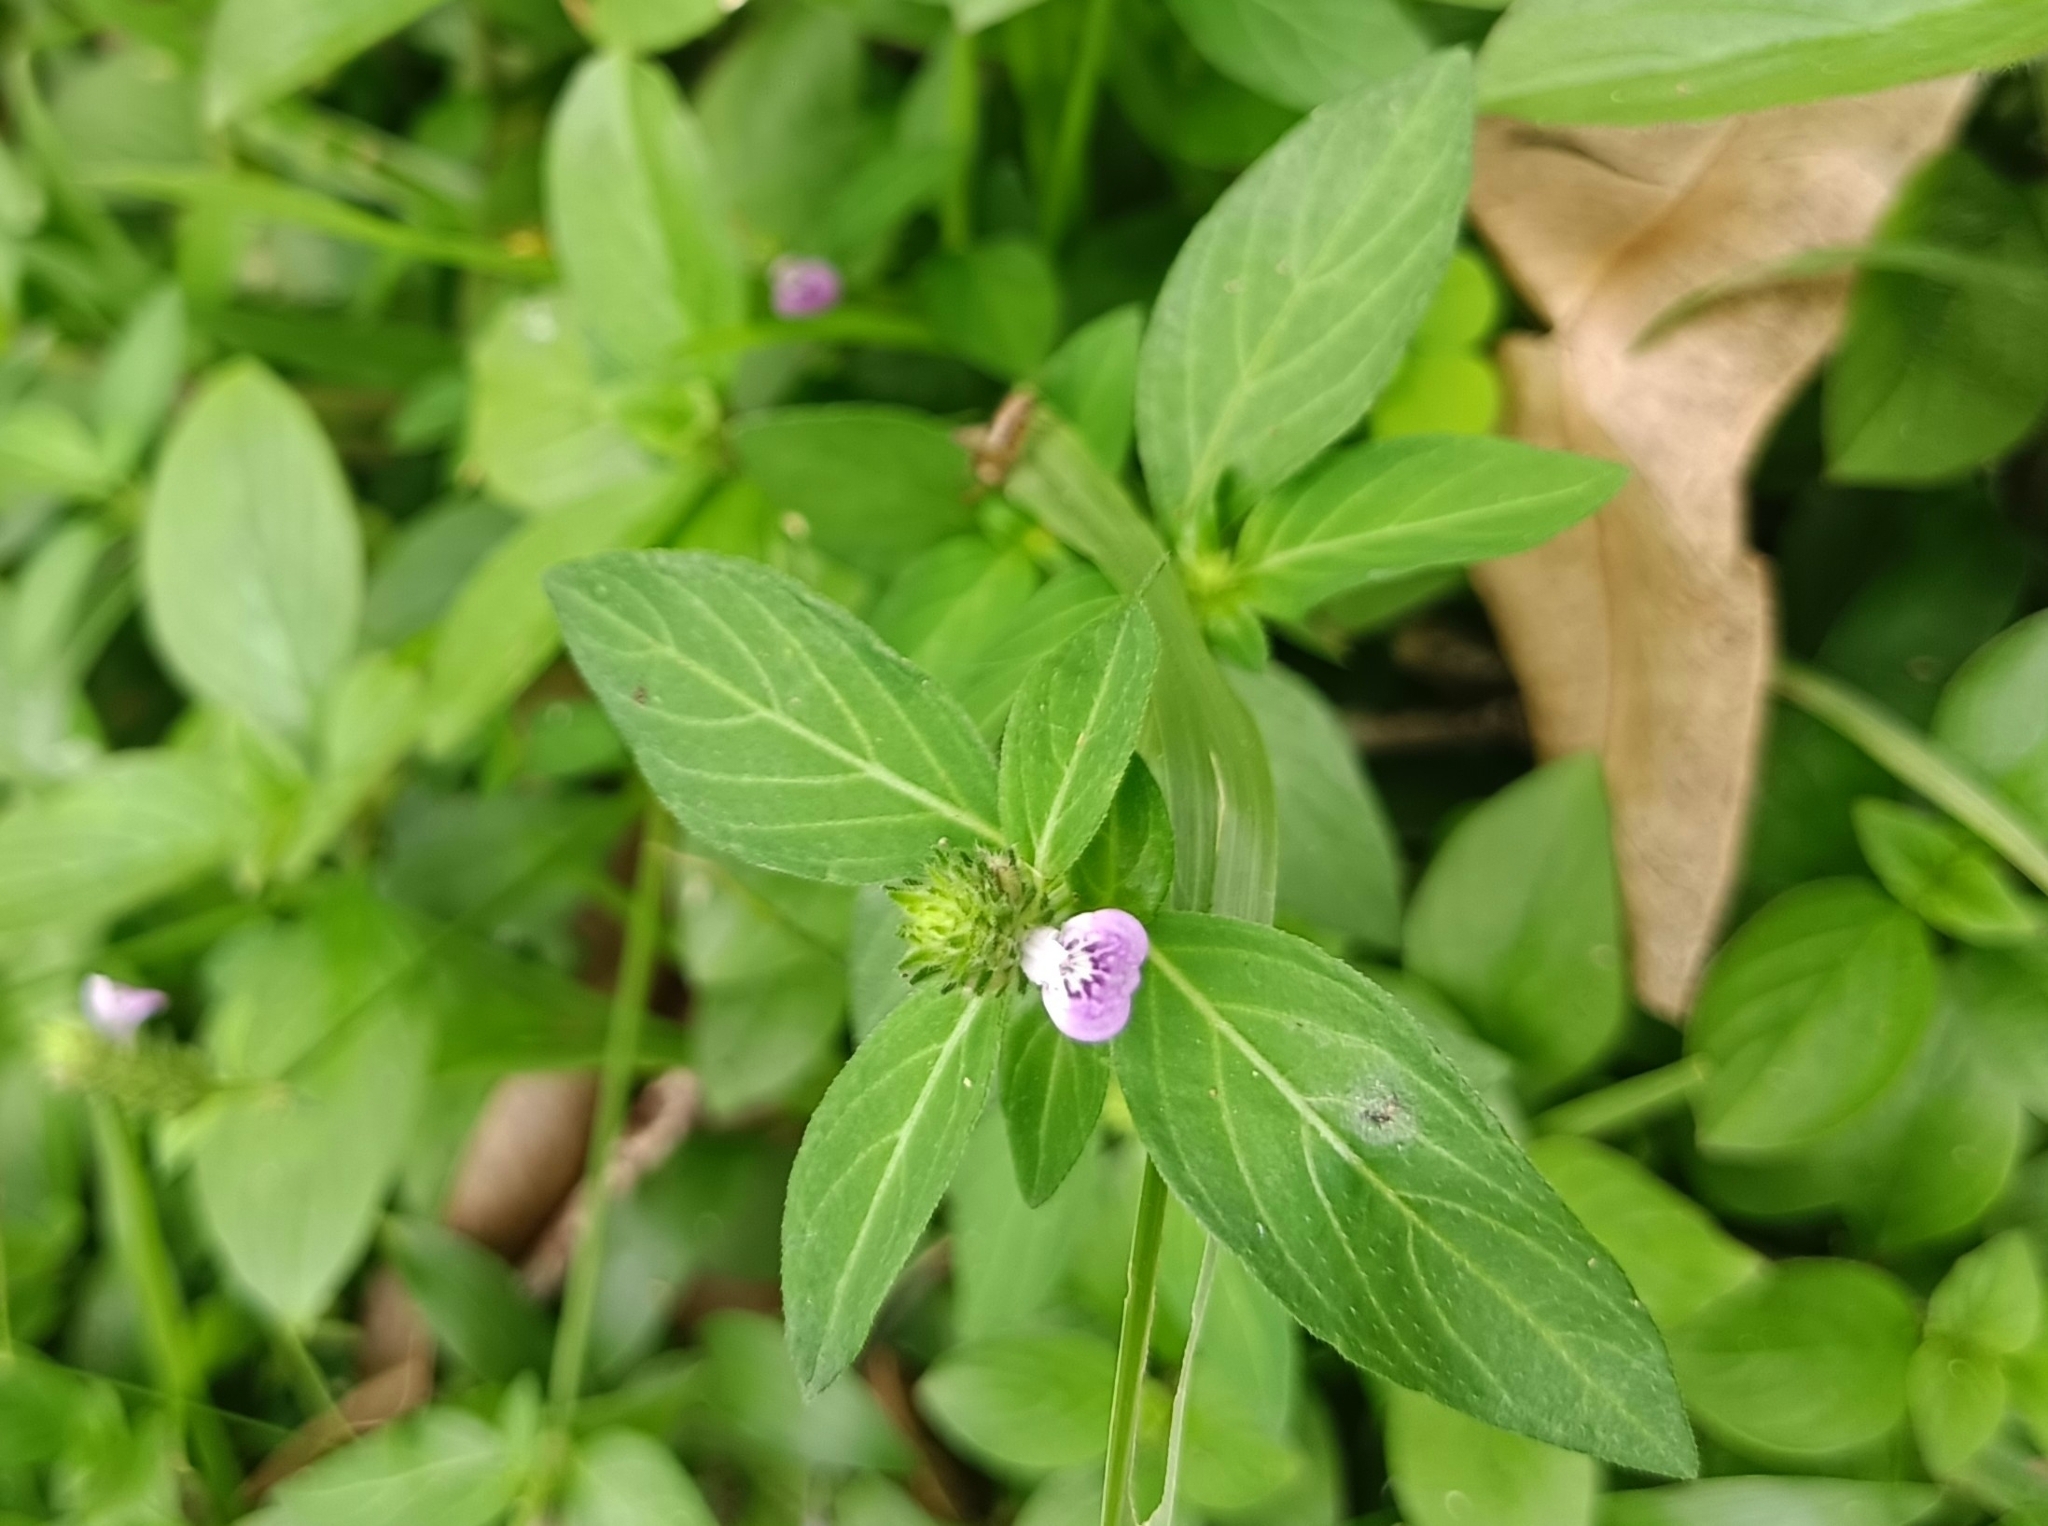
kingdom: Plantae
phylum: Tracheophyta
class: Magnoliopsida
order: Lamiales
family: Acanthaceae
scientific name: Acanthaceae
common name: Acanthaceae
